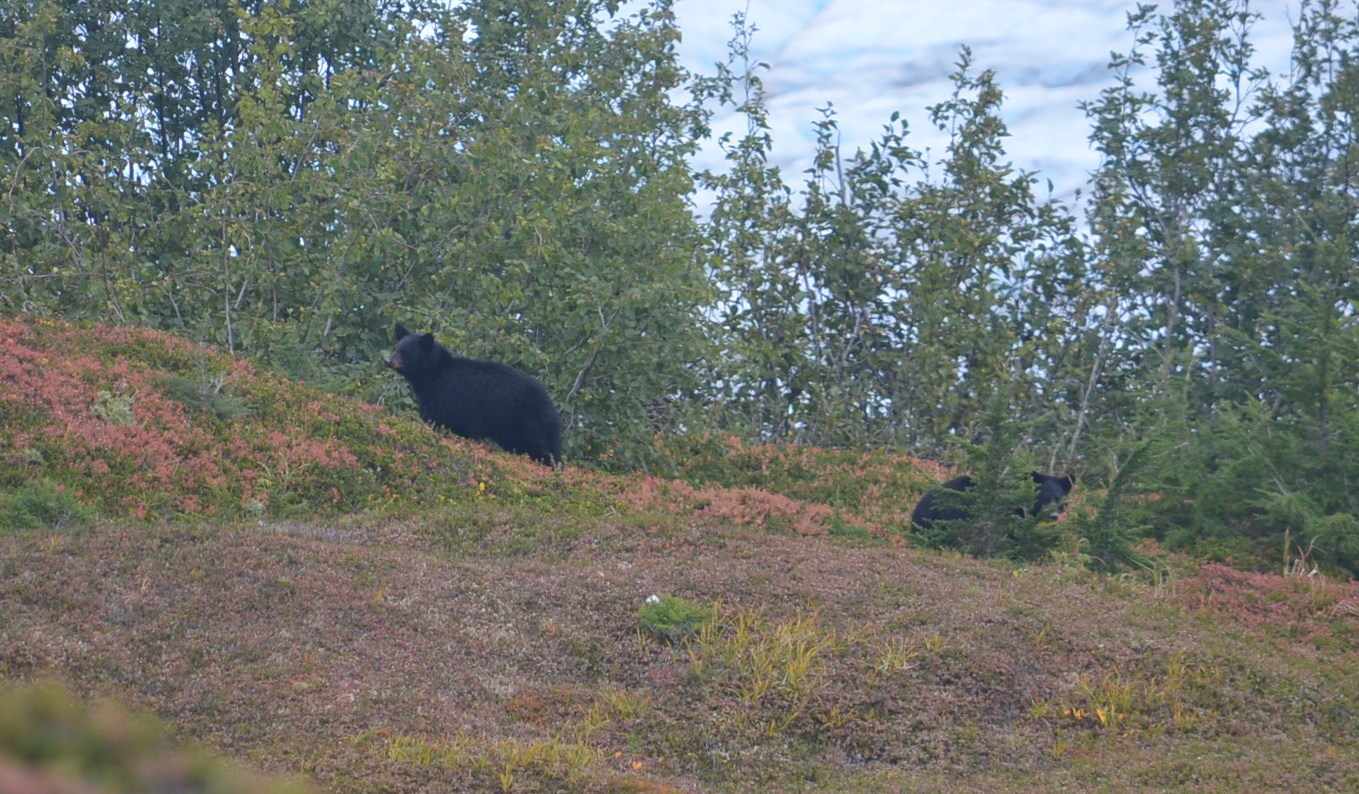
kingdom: Animalia
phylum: Chordata
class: Mammalia
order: Carnivora
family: Ursidae
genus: Ursus
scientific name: Ursus americanus
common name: American black bear
